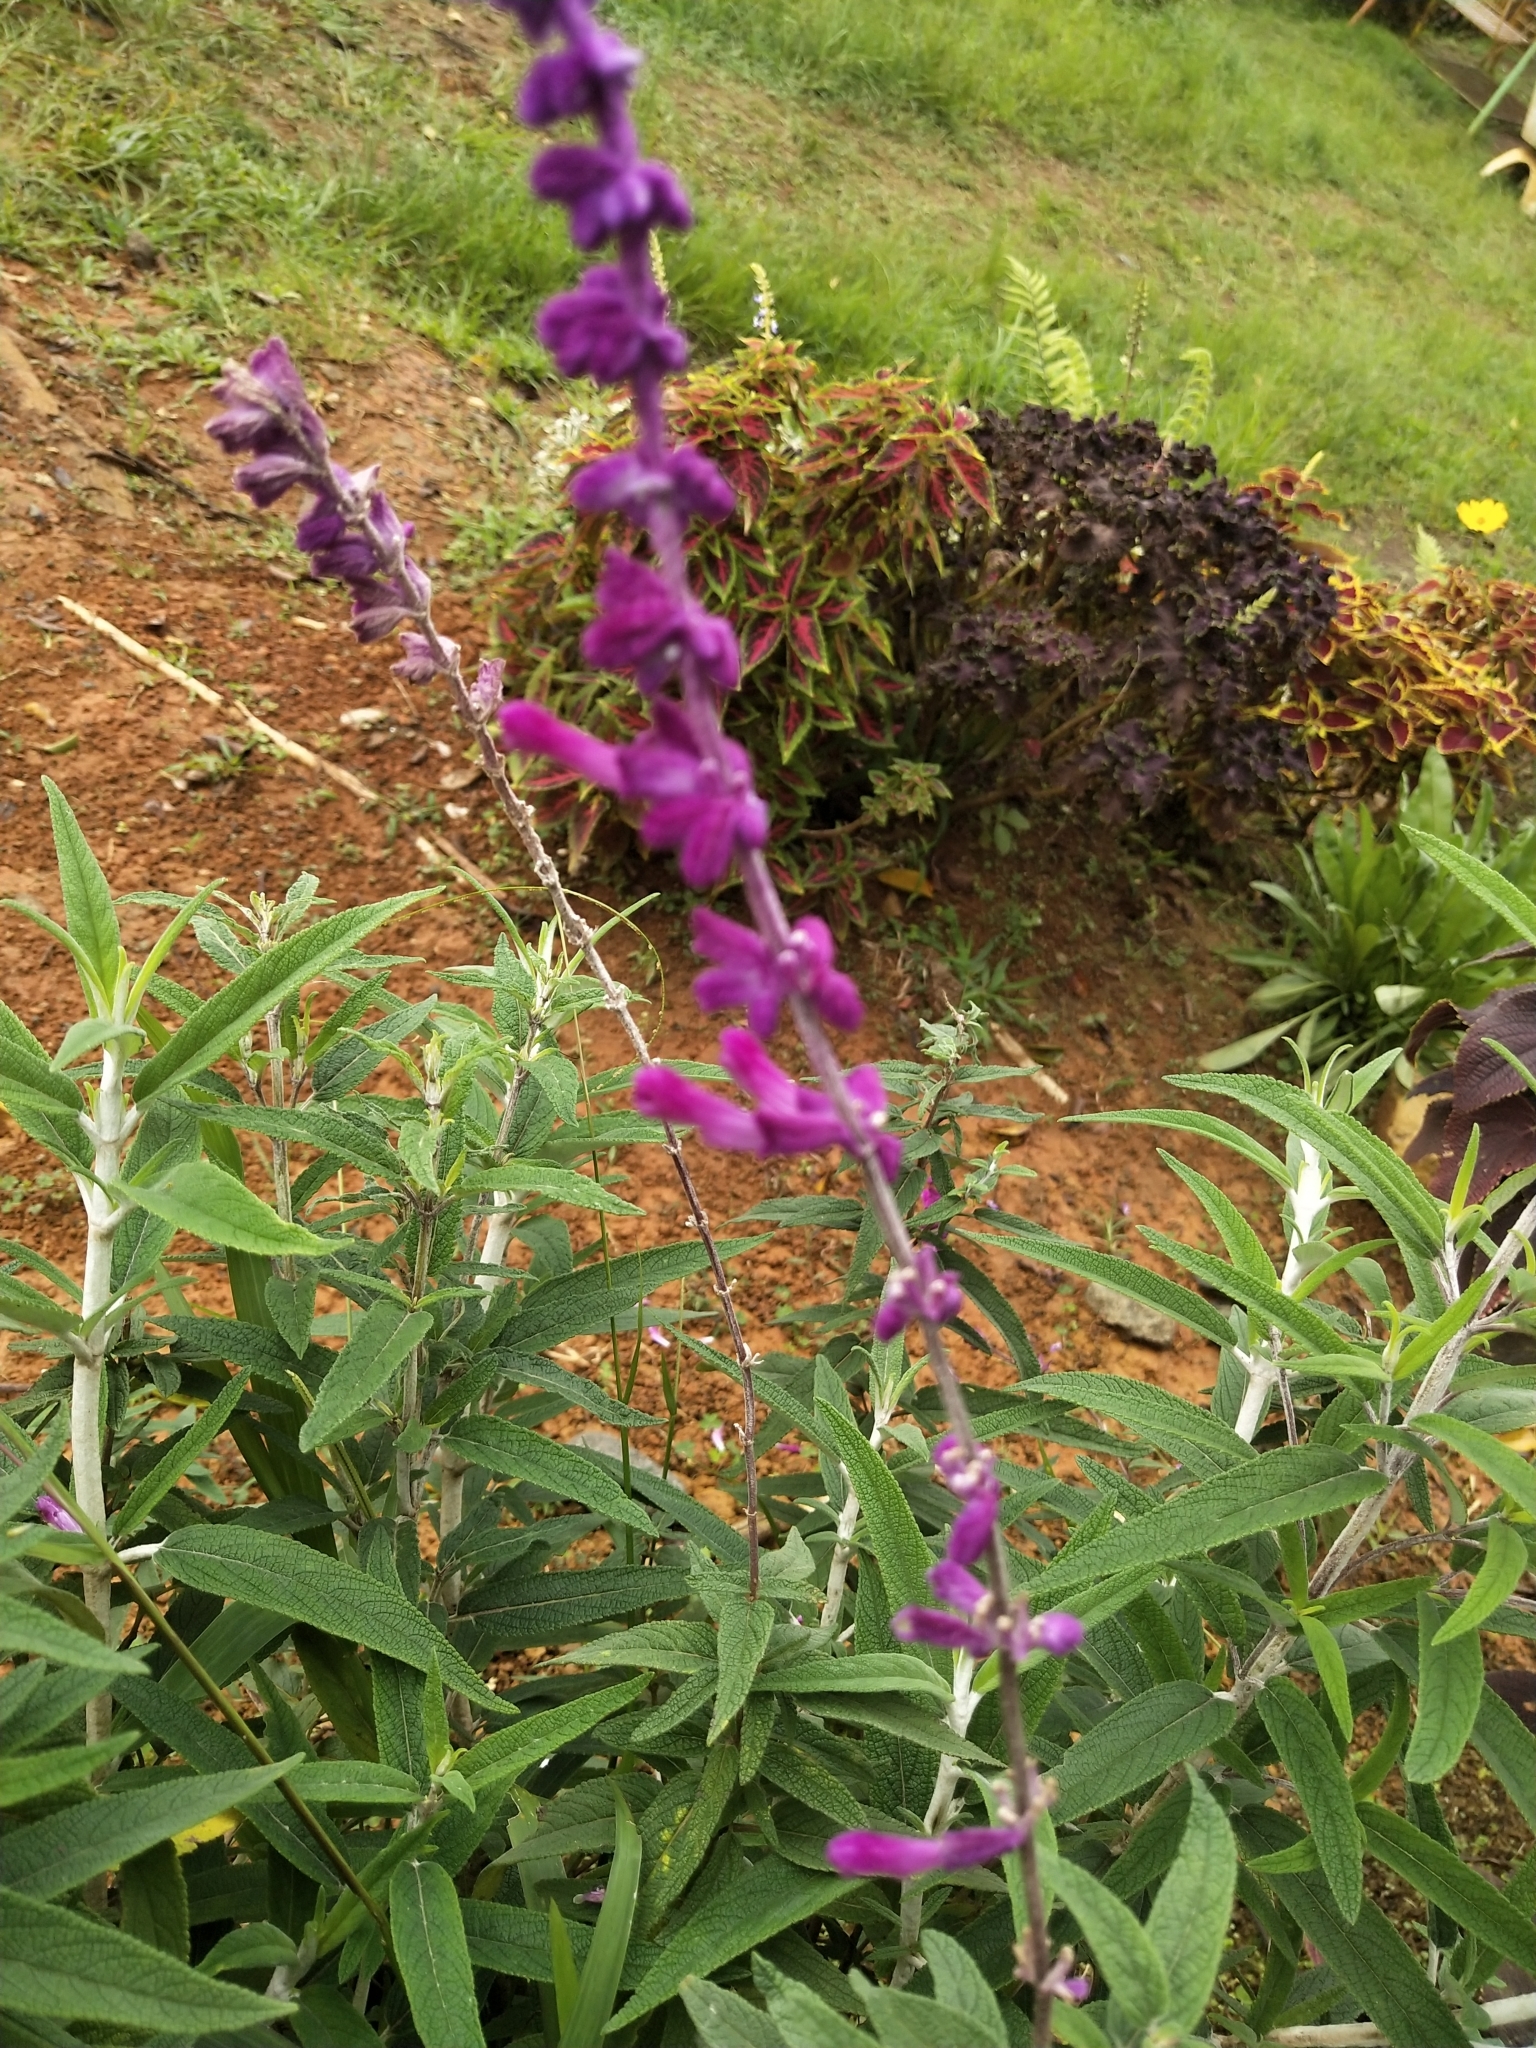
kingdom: Plantae
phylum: Tracheophyta
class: Magnoliopsida
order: Lamiales
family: Lamiaceae
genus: Salvia
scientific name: Salvia leucantha
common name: Mexican bush sage
